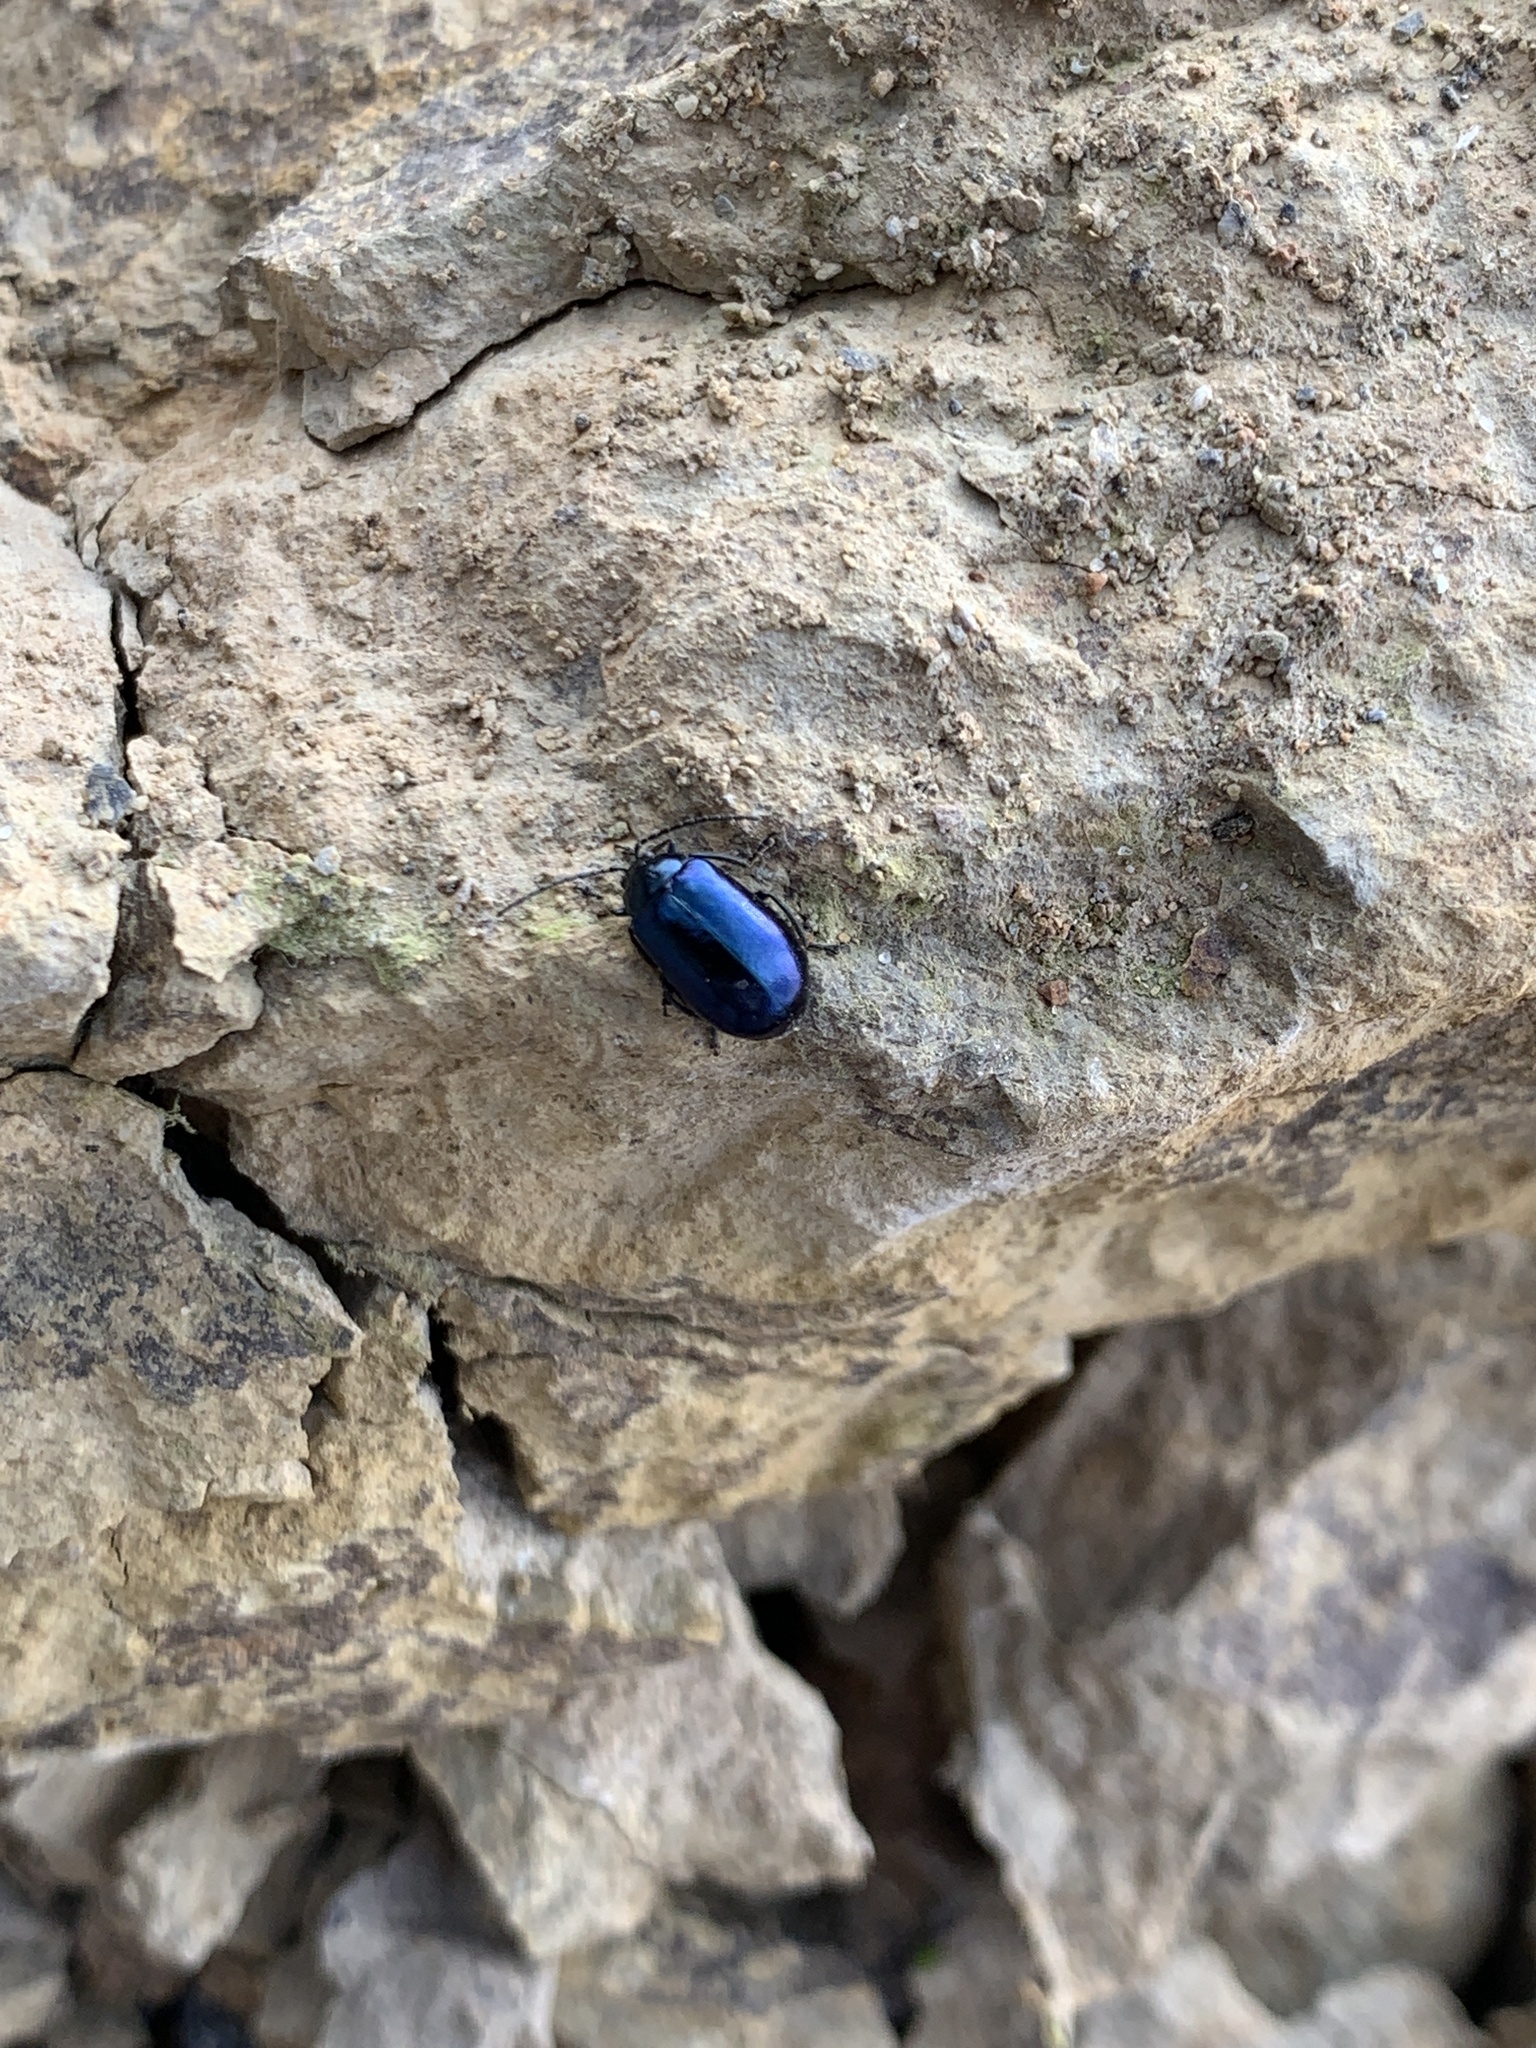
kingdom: Animalia
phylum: Arthropoda
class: Insecta
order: Coleoptera
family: Chrysomelidae
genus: Agelastica
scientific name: Agelastica alni
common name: Alder leaf beetle
